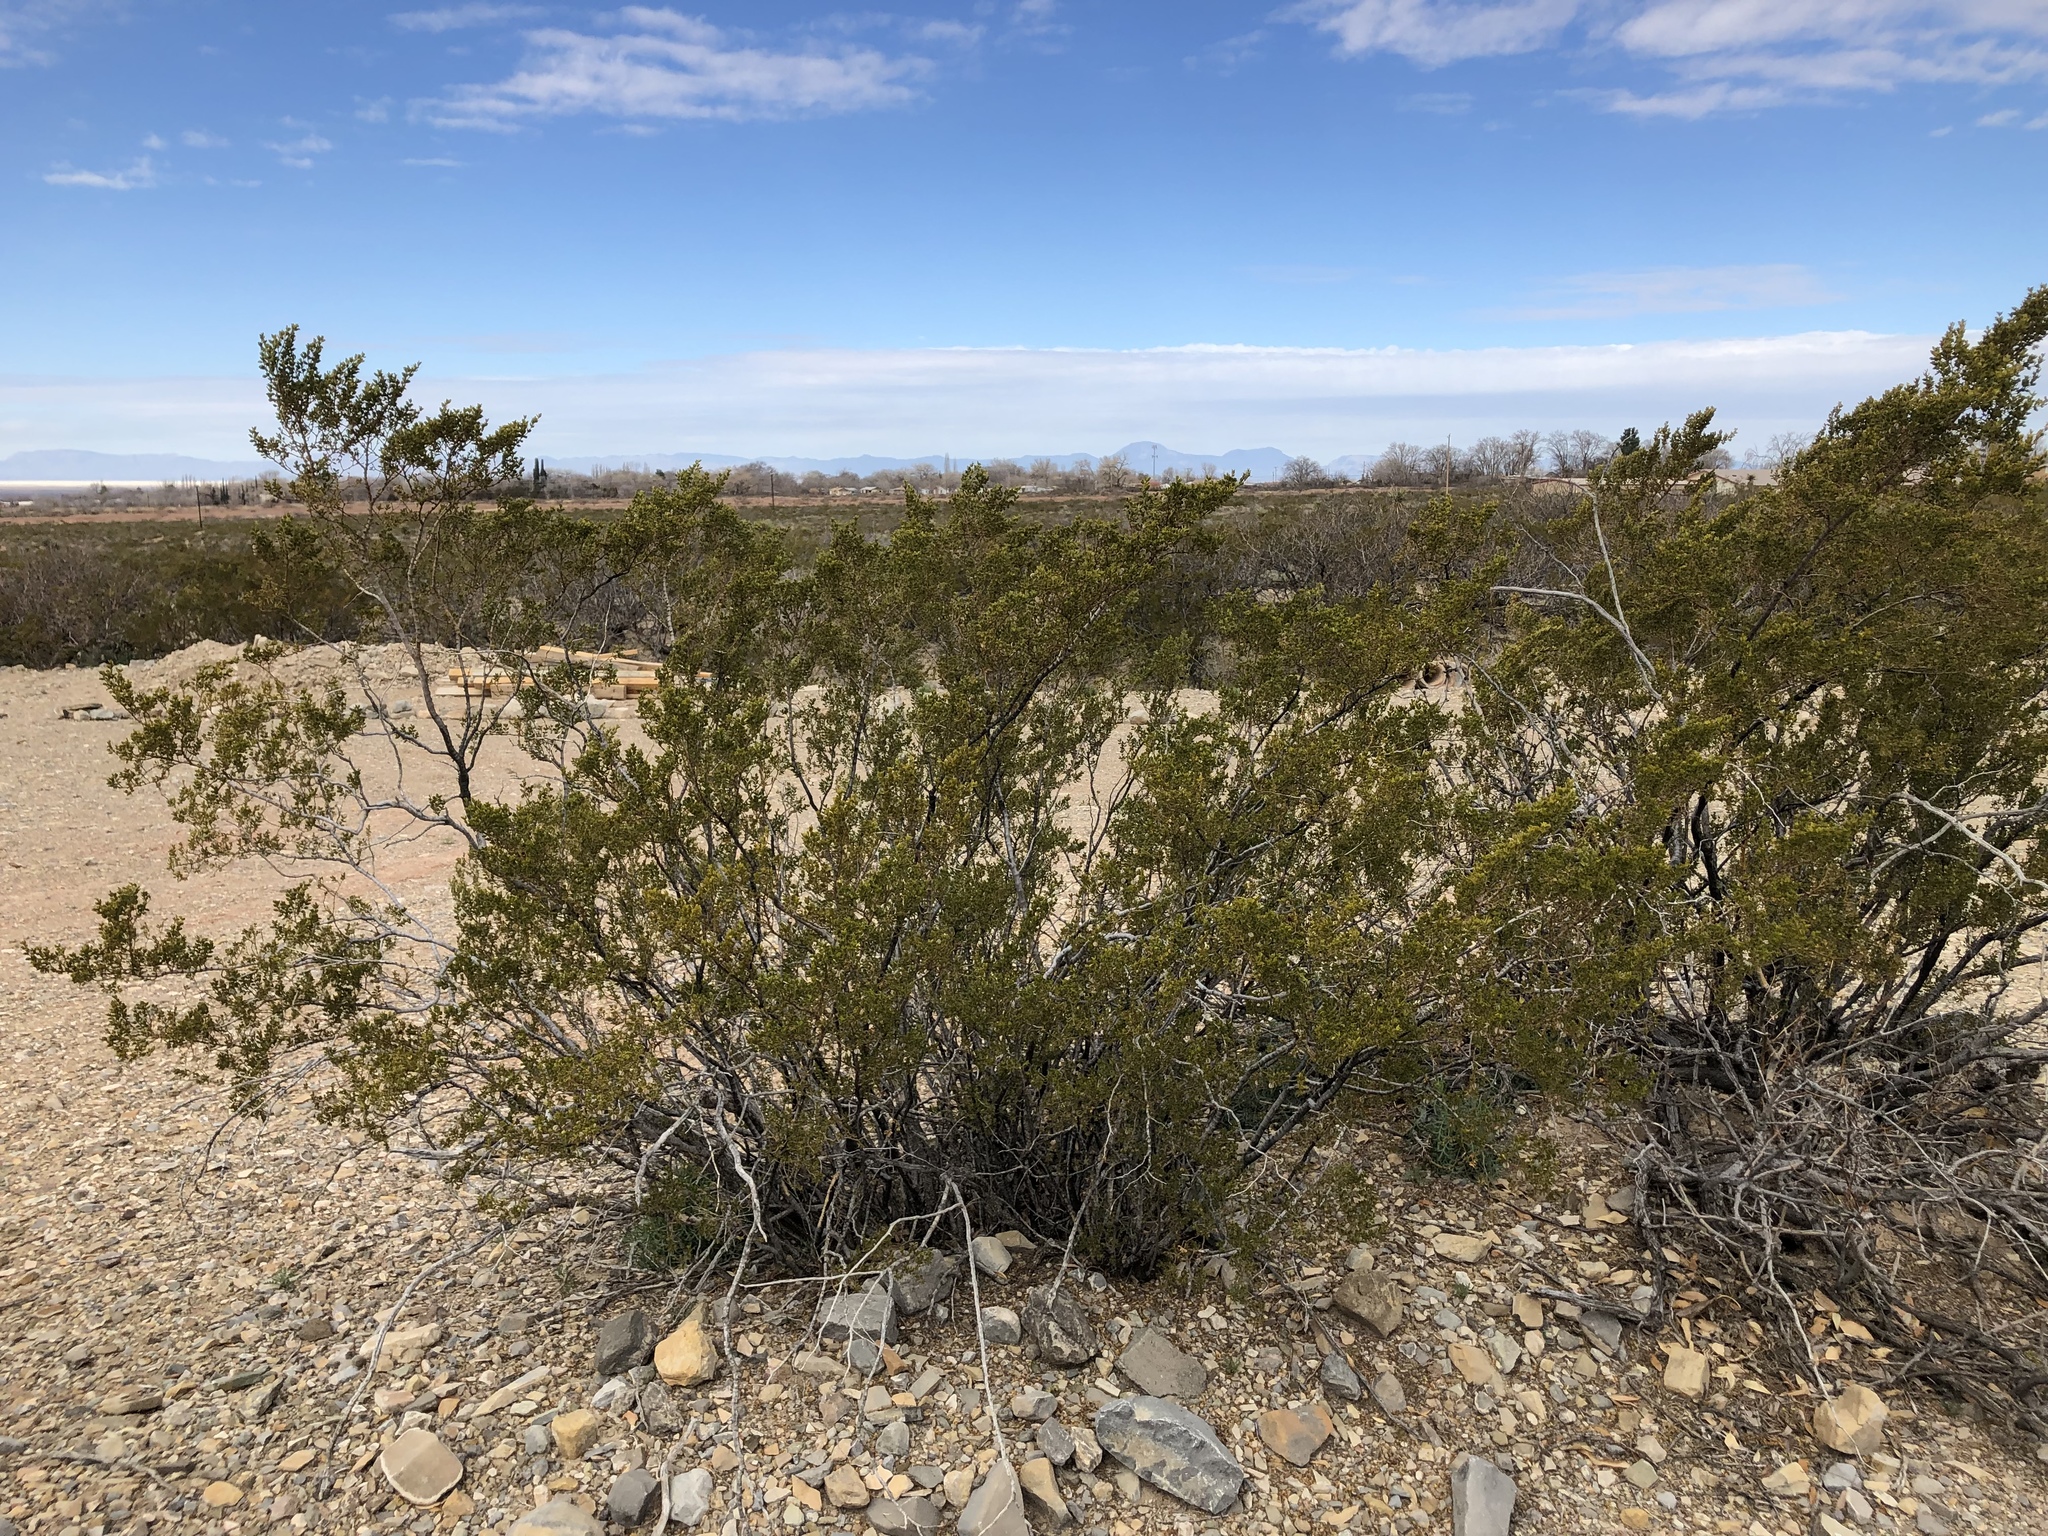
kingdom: Plantae
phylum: Tracheophyta
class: Magnoliopsida
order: Zygophyllales
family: Zygophyllaceae
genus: Larrea
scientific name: Larrea tridentata
